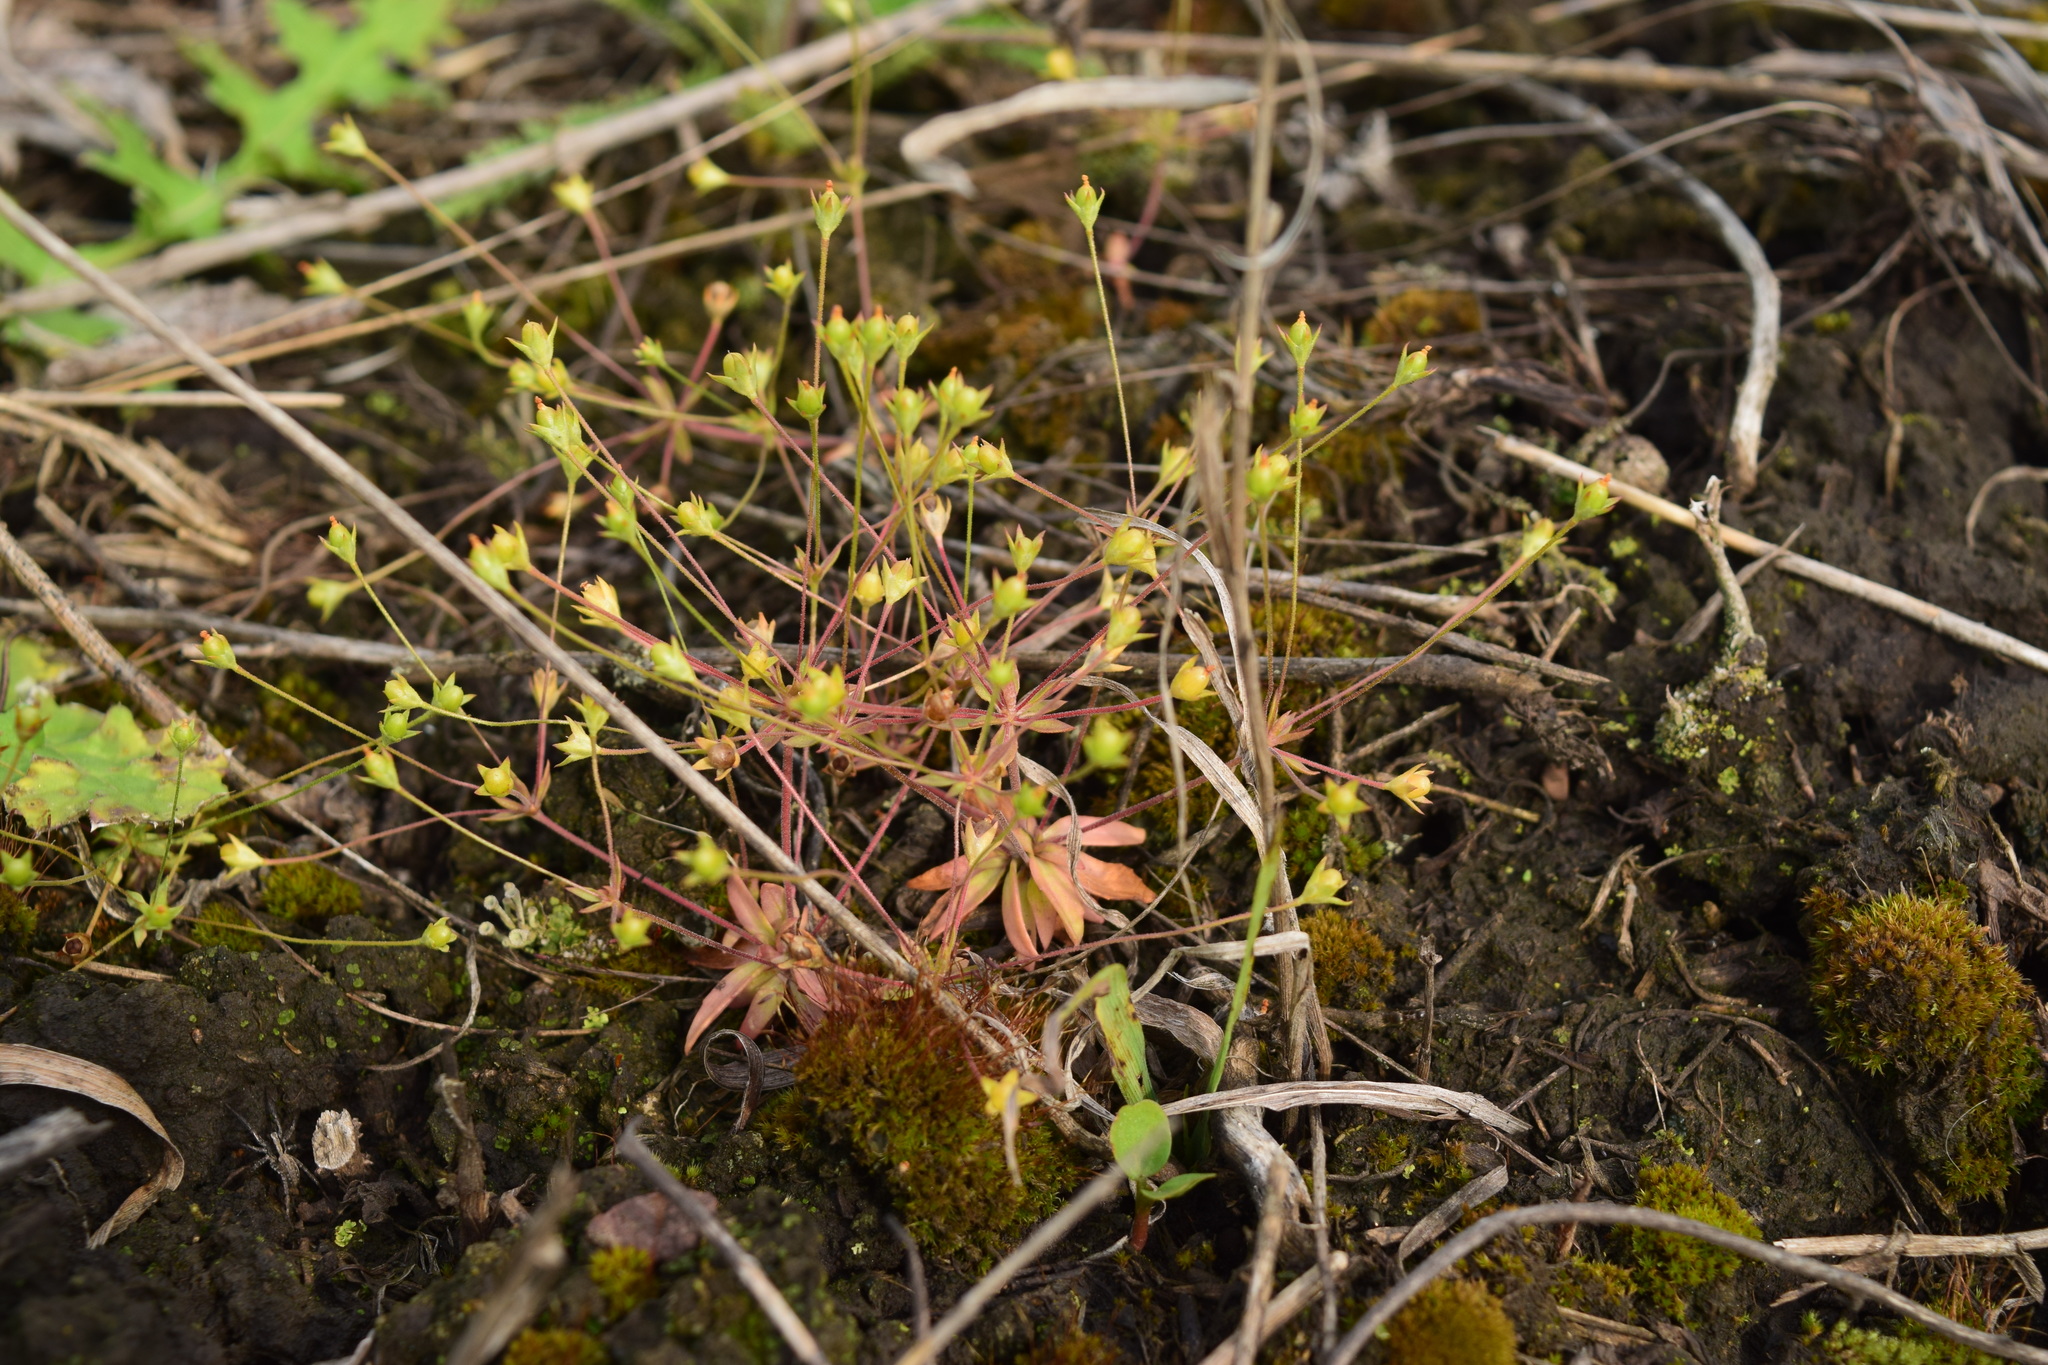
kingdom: Plantae
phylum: Tracheophyta
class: Magnoliopsida
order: Ericales
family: Primulaceae
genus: Androsace
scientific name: Androsace elongata
